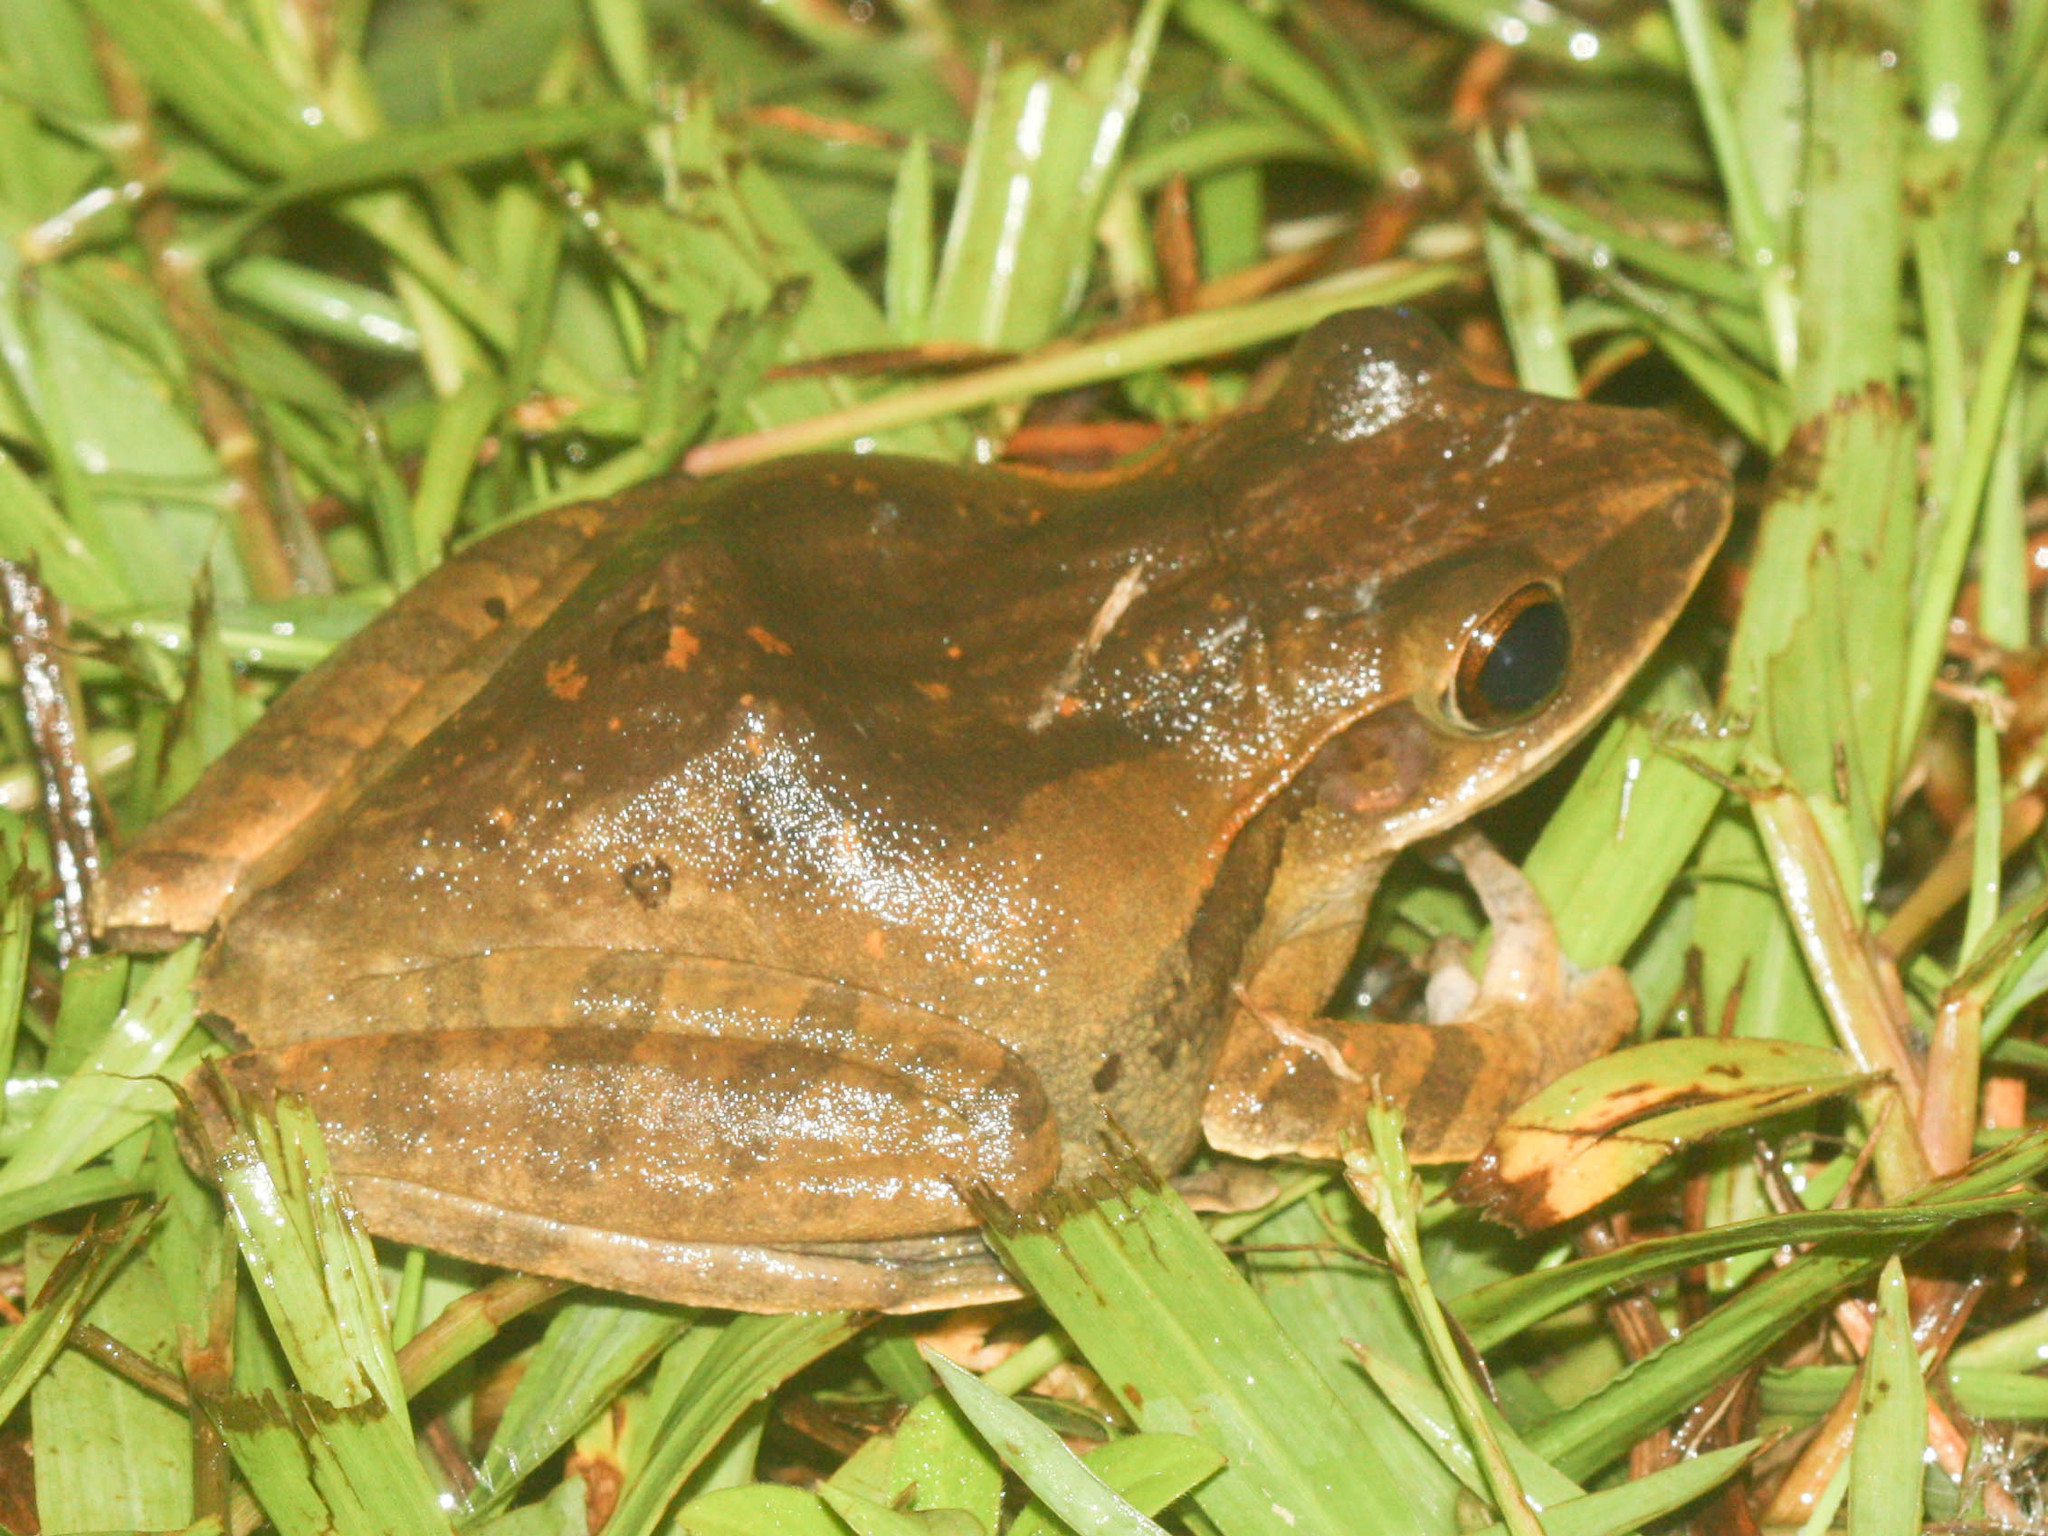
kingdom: Animalia
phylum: Chordata
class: Amphibia
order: Anura
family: Rhacophoridae
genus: Polypedates
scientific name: Polypedates megacephalus
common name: Hong kong whipping frog
